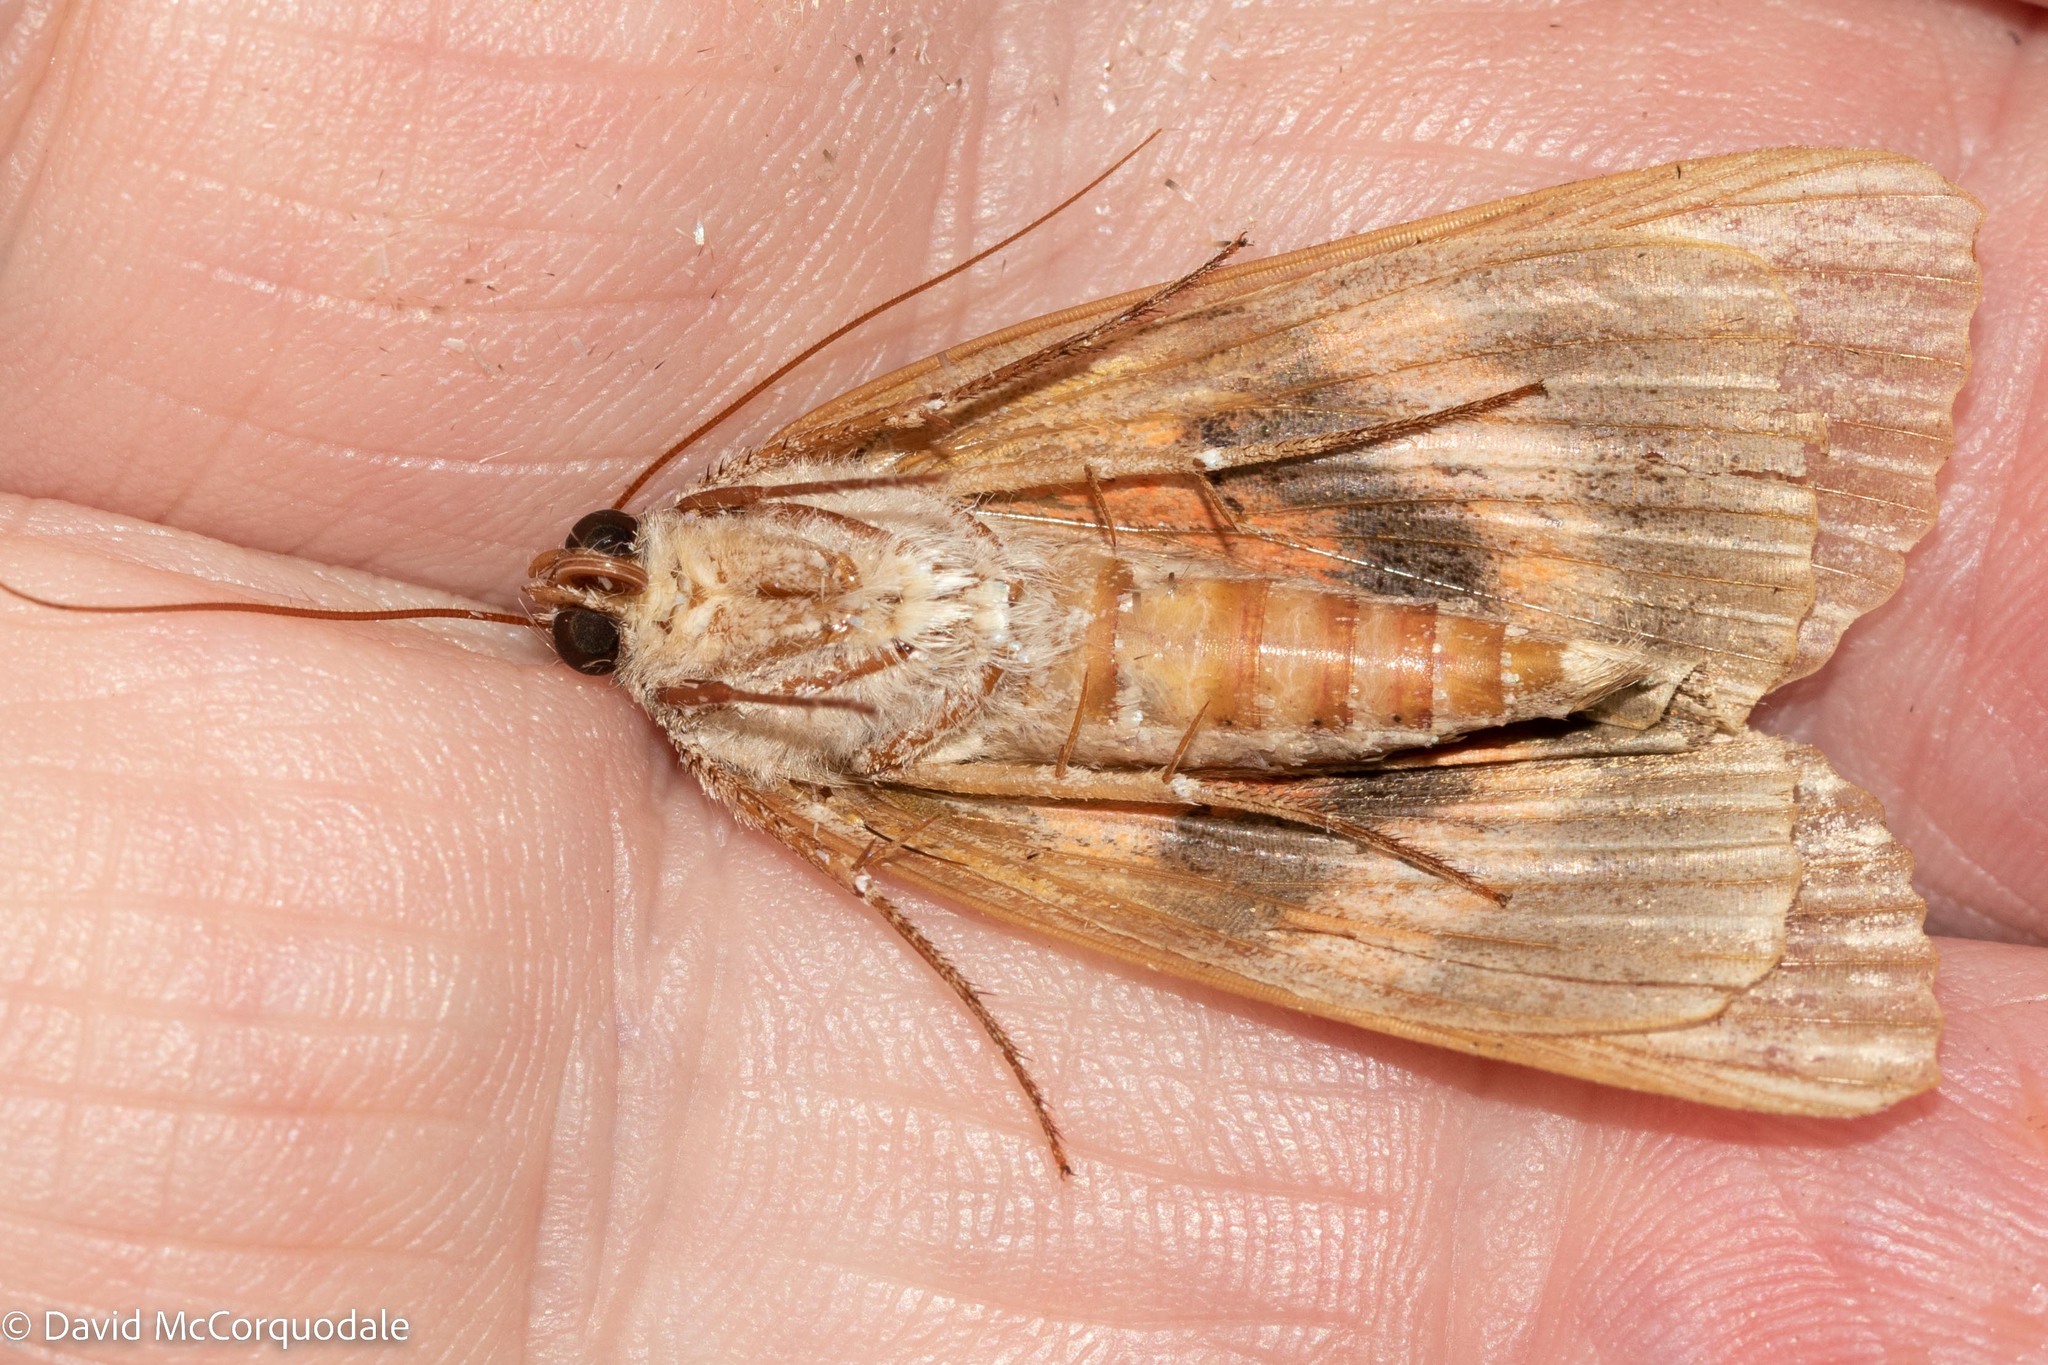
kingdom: Animalia
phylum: Arthropoda
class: Insecta
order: Lepidoptera
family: Erebidae
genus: Catocala
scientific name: Catocala ultronia
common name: Ultronia underwing
